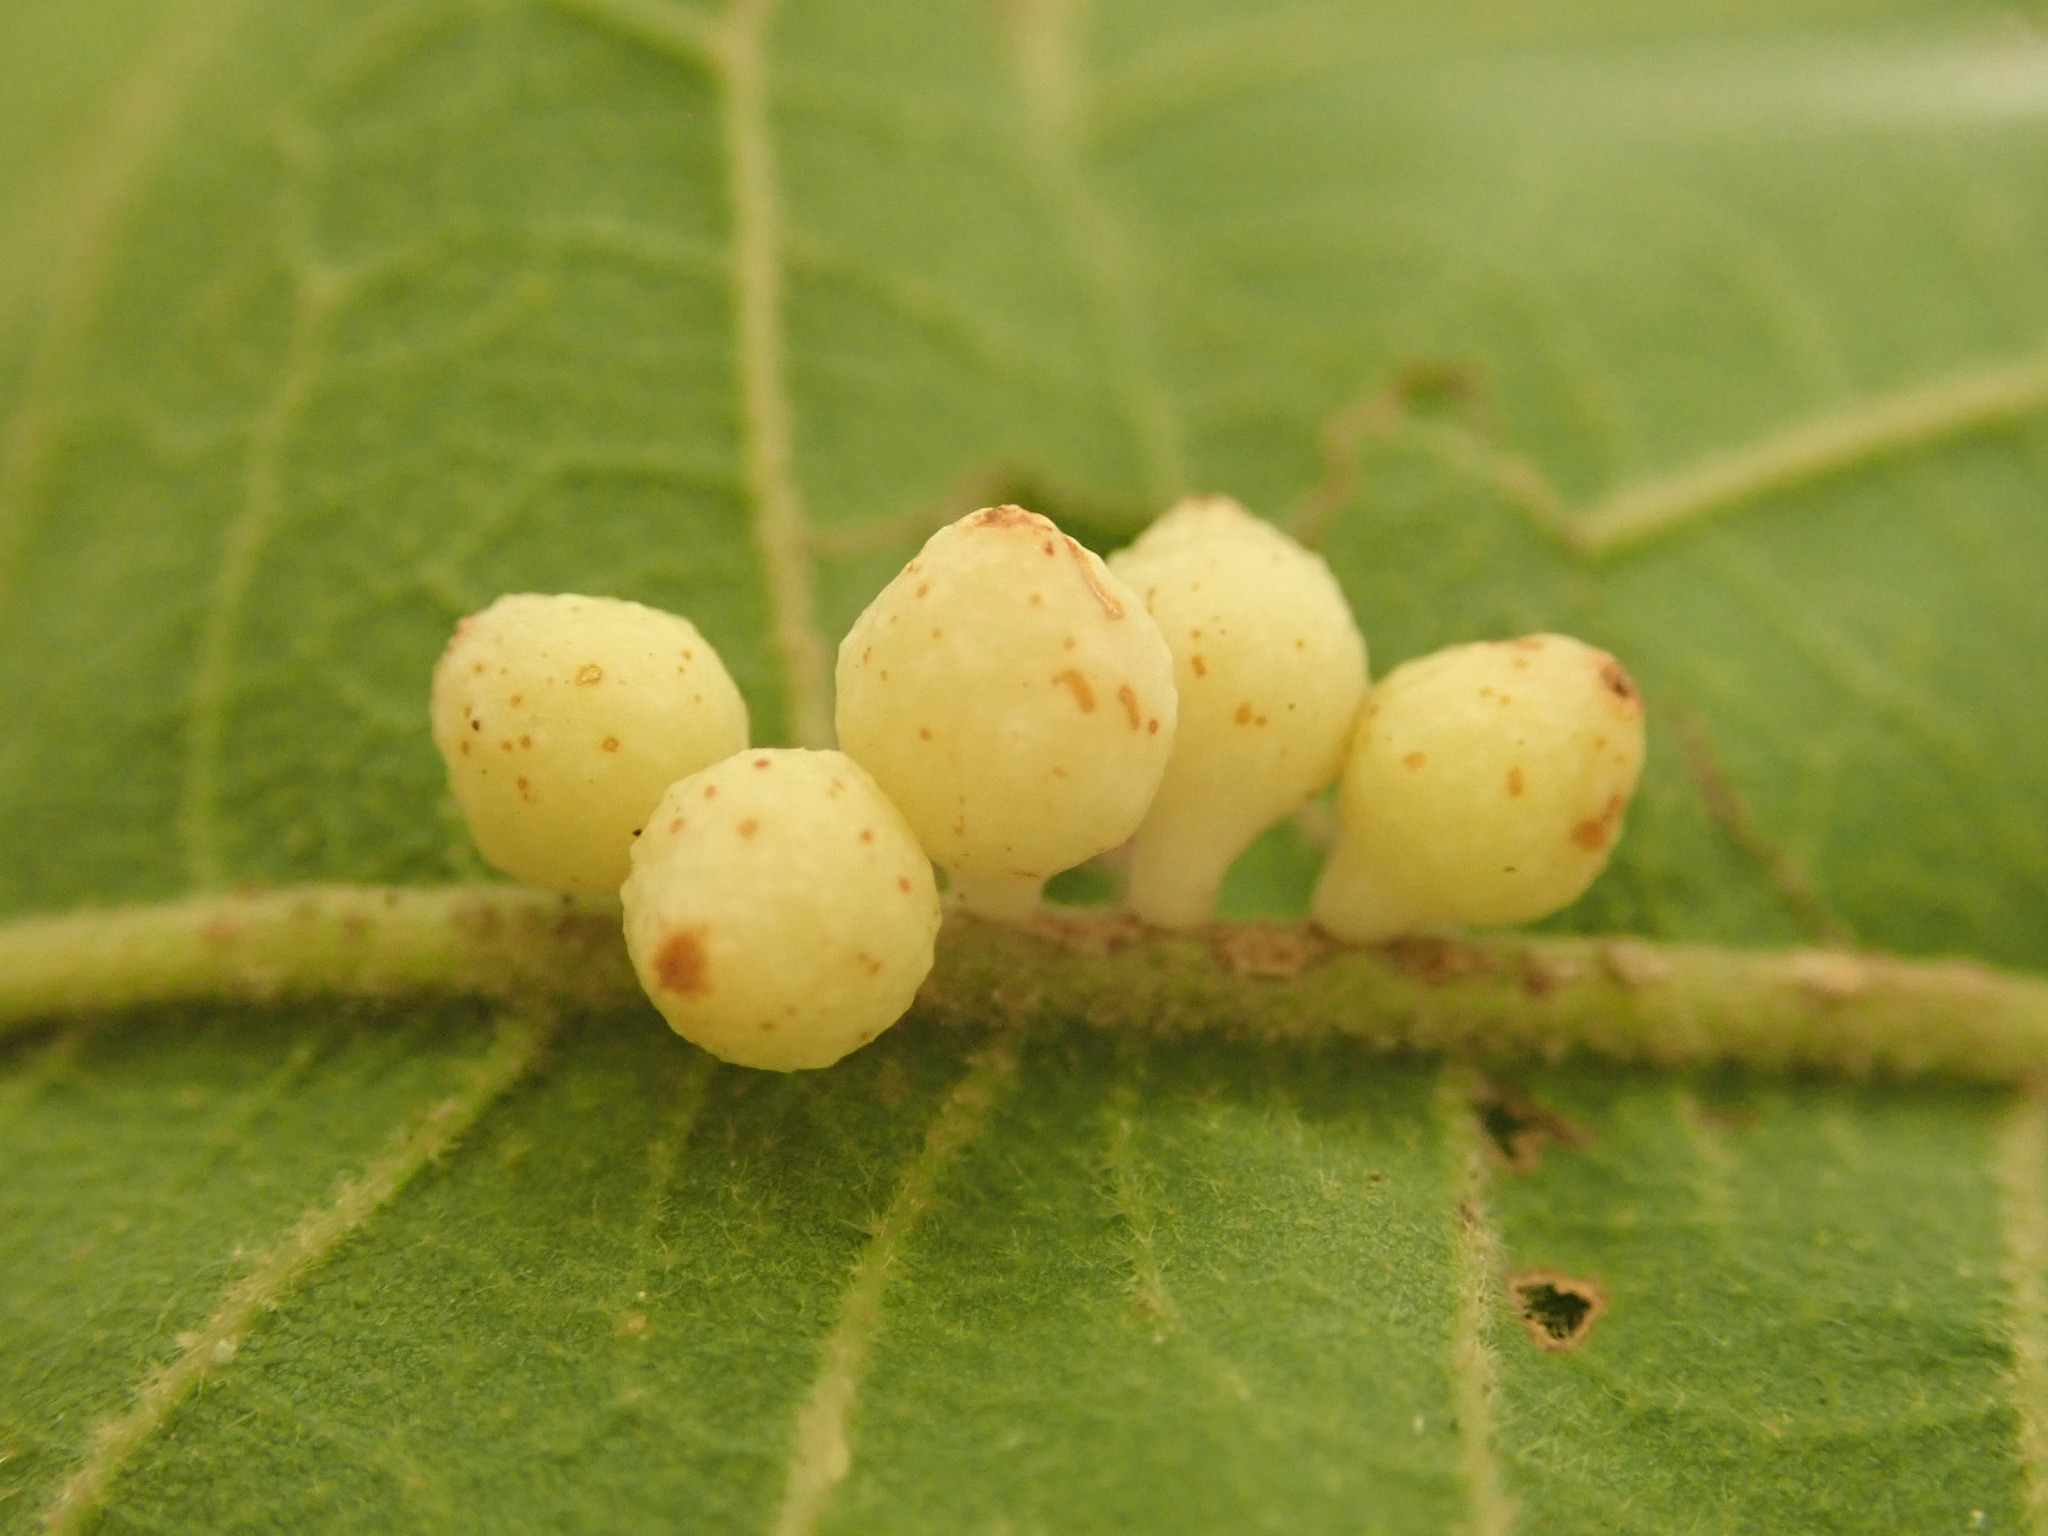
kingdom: Animalia
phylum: Arthropoda
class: Insecta
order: Hymenoptera
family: Cynipidae
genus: Andricus
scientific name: Andricus
